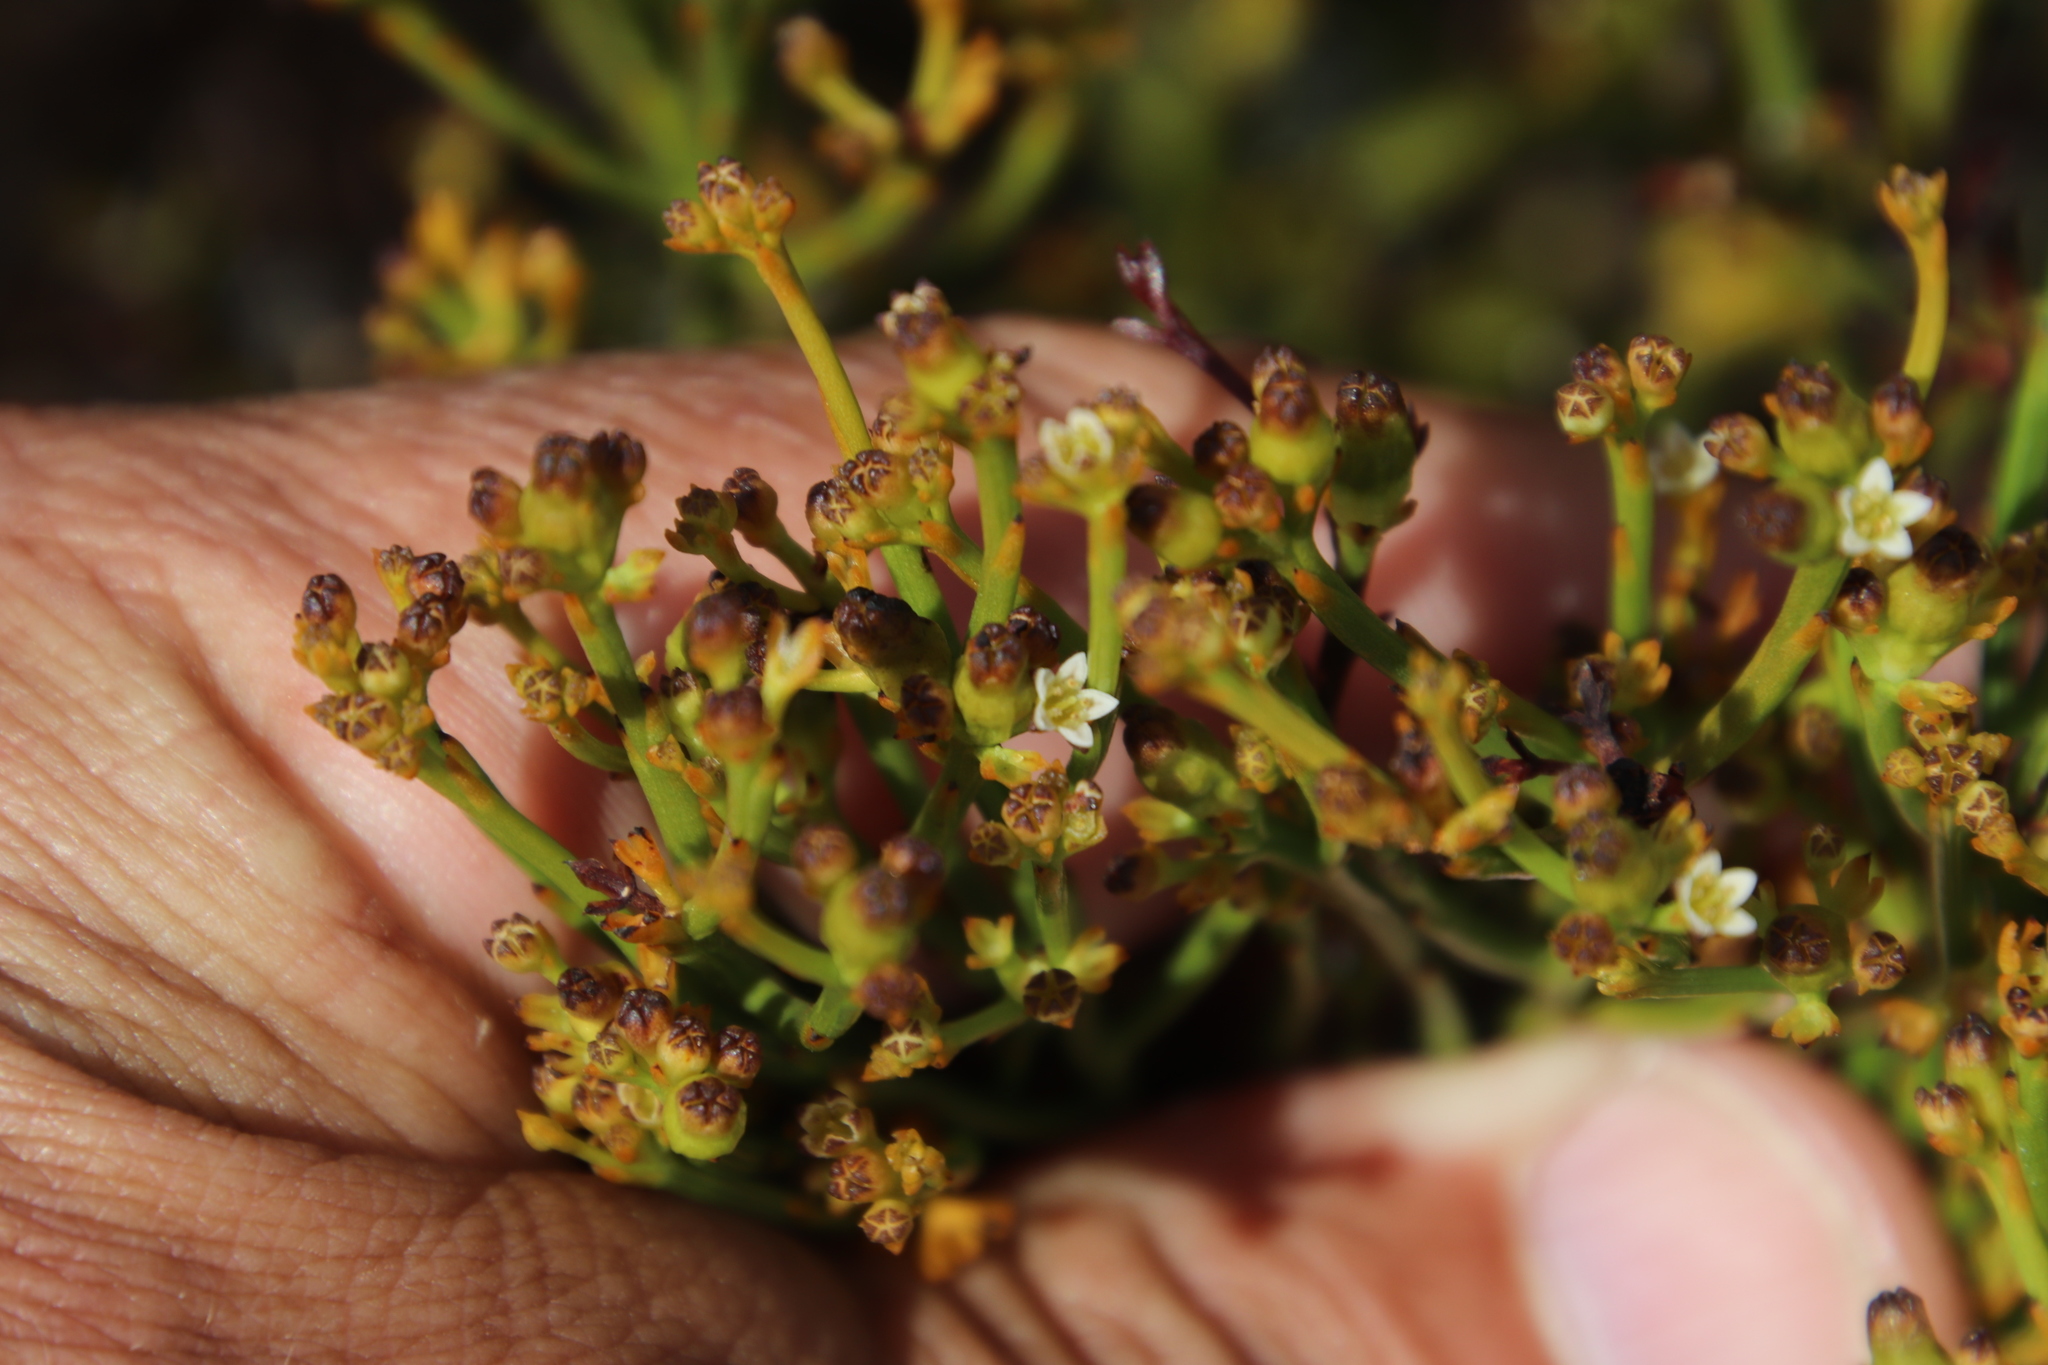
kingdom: Plantae
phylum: Tracheophyta
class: Magnoliopsida
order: Santalales
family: Thesiaceae
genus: Thesium
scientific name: Thesium nudicaule
